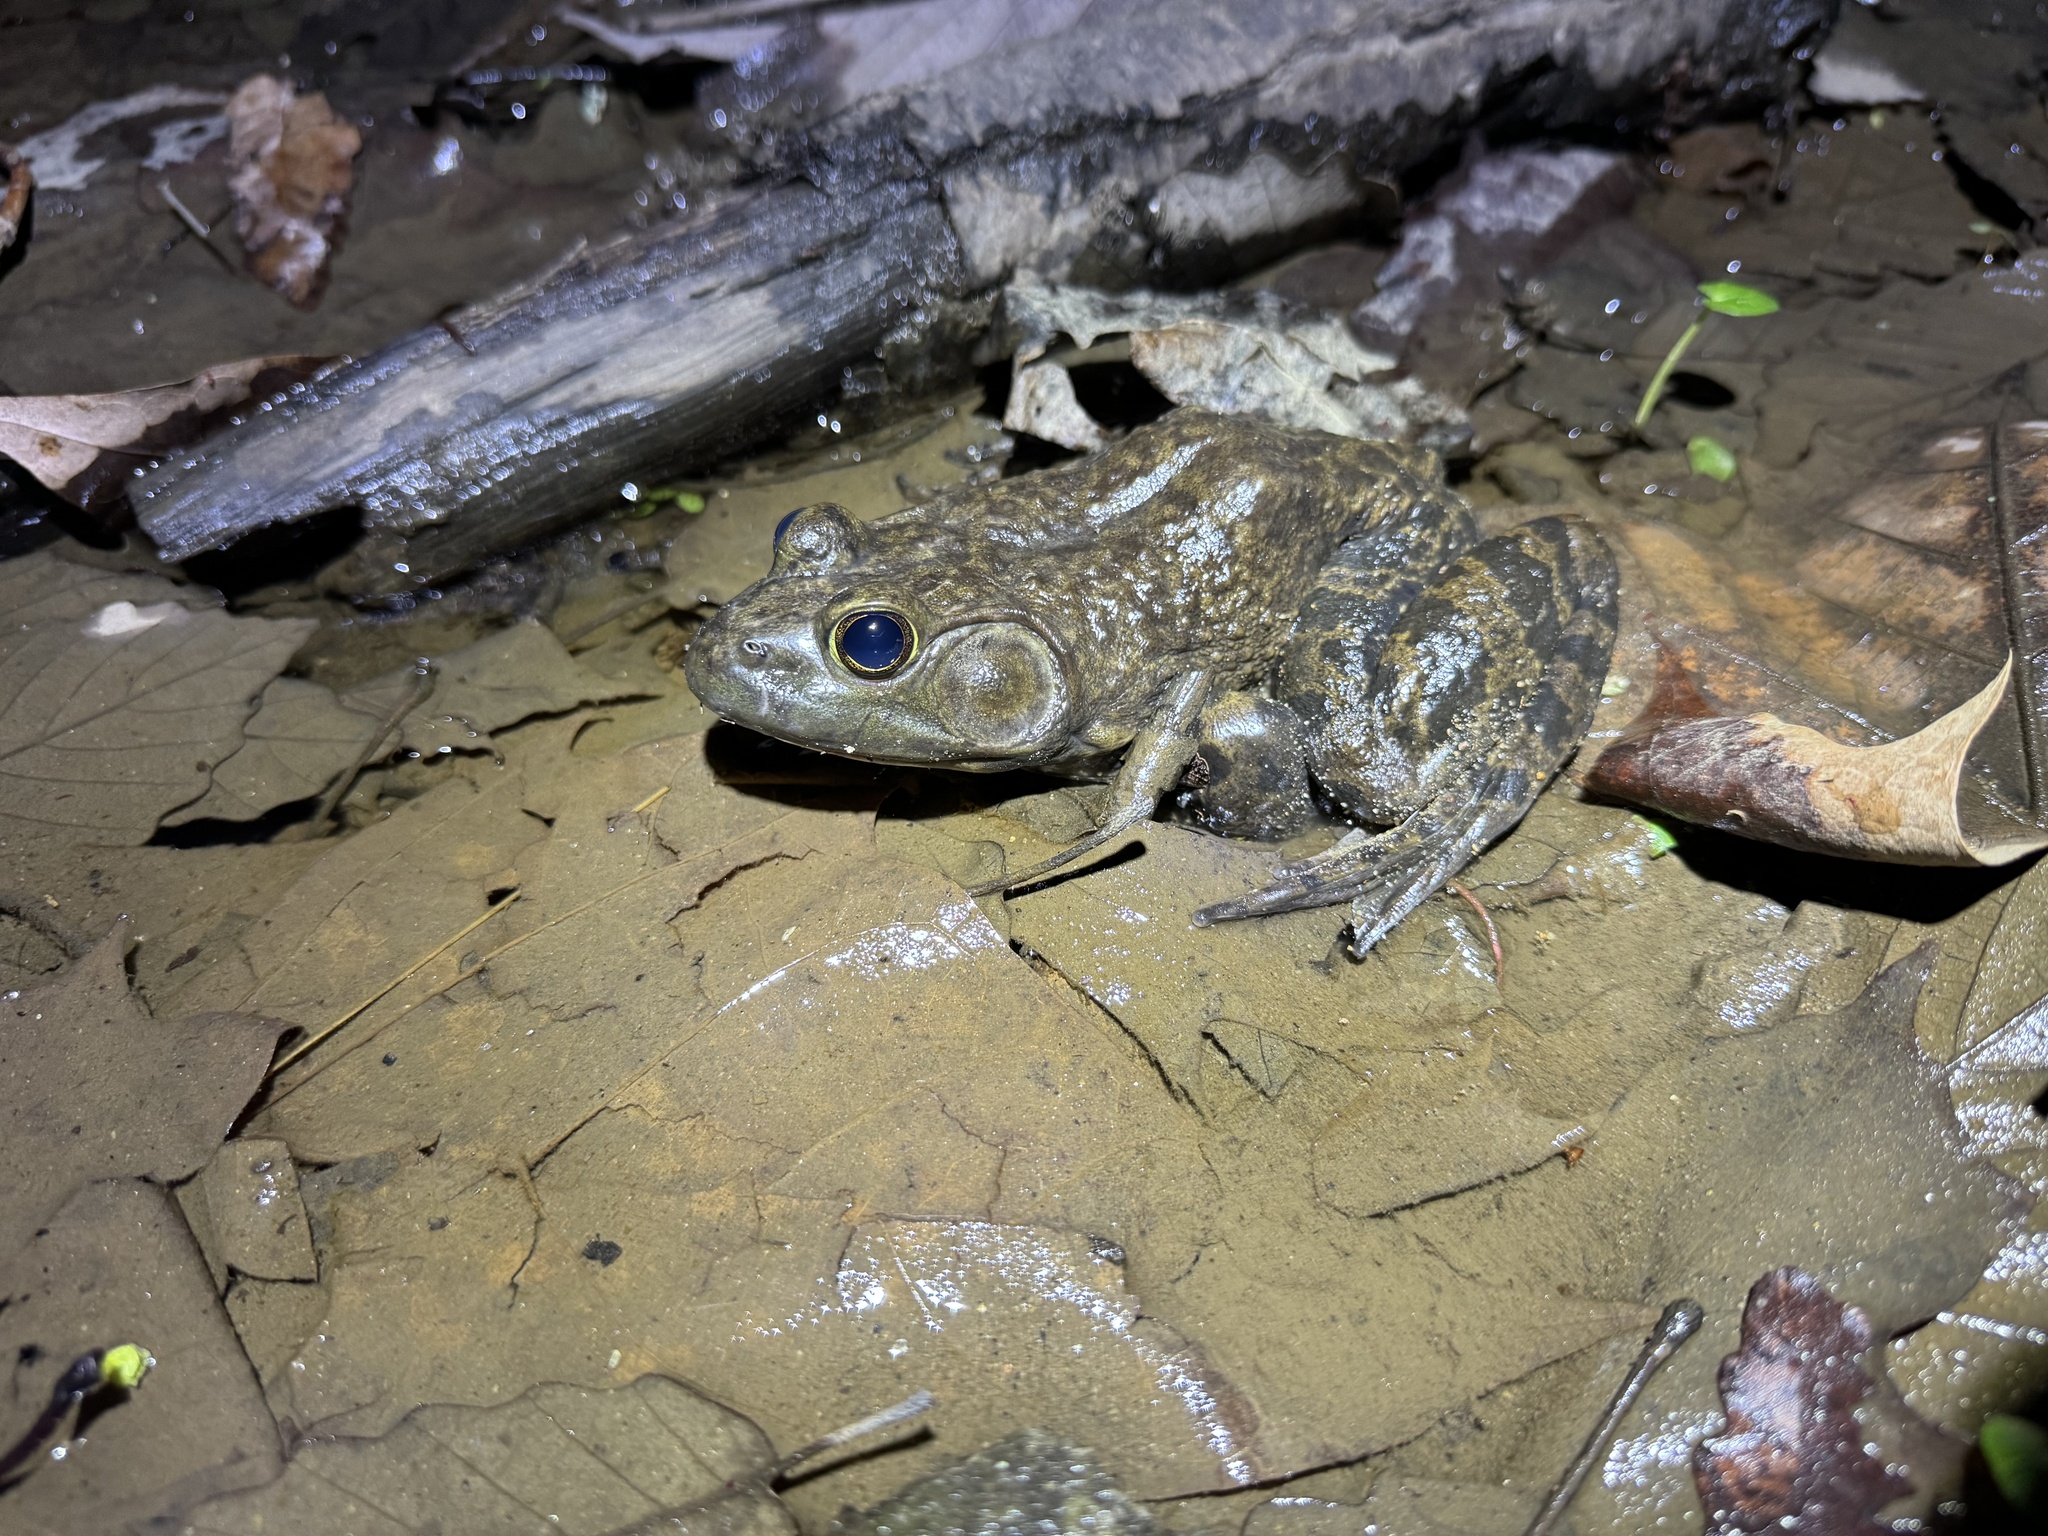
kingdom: Animalia
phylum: Chordata
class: Amphibia
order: Anura
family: Ranidae
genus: Lithobates
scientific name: Lithobates catesbeianus
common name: American bullfrog
